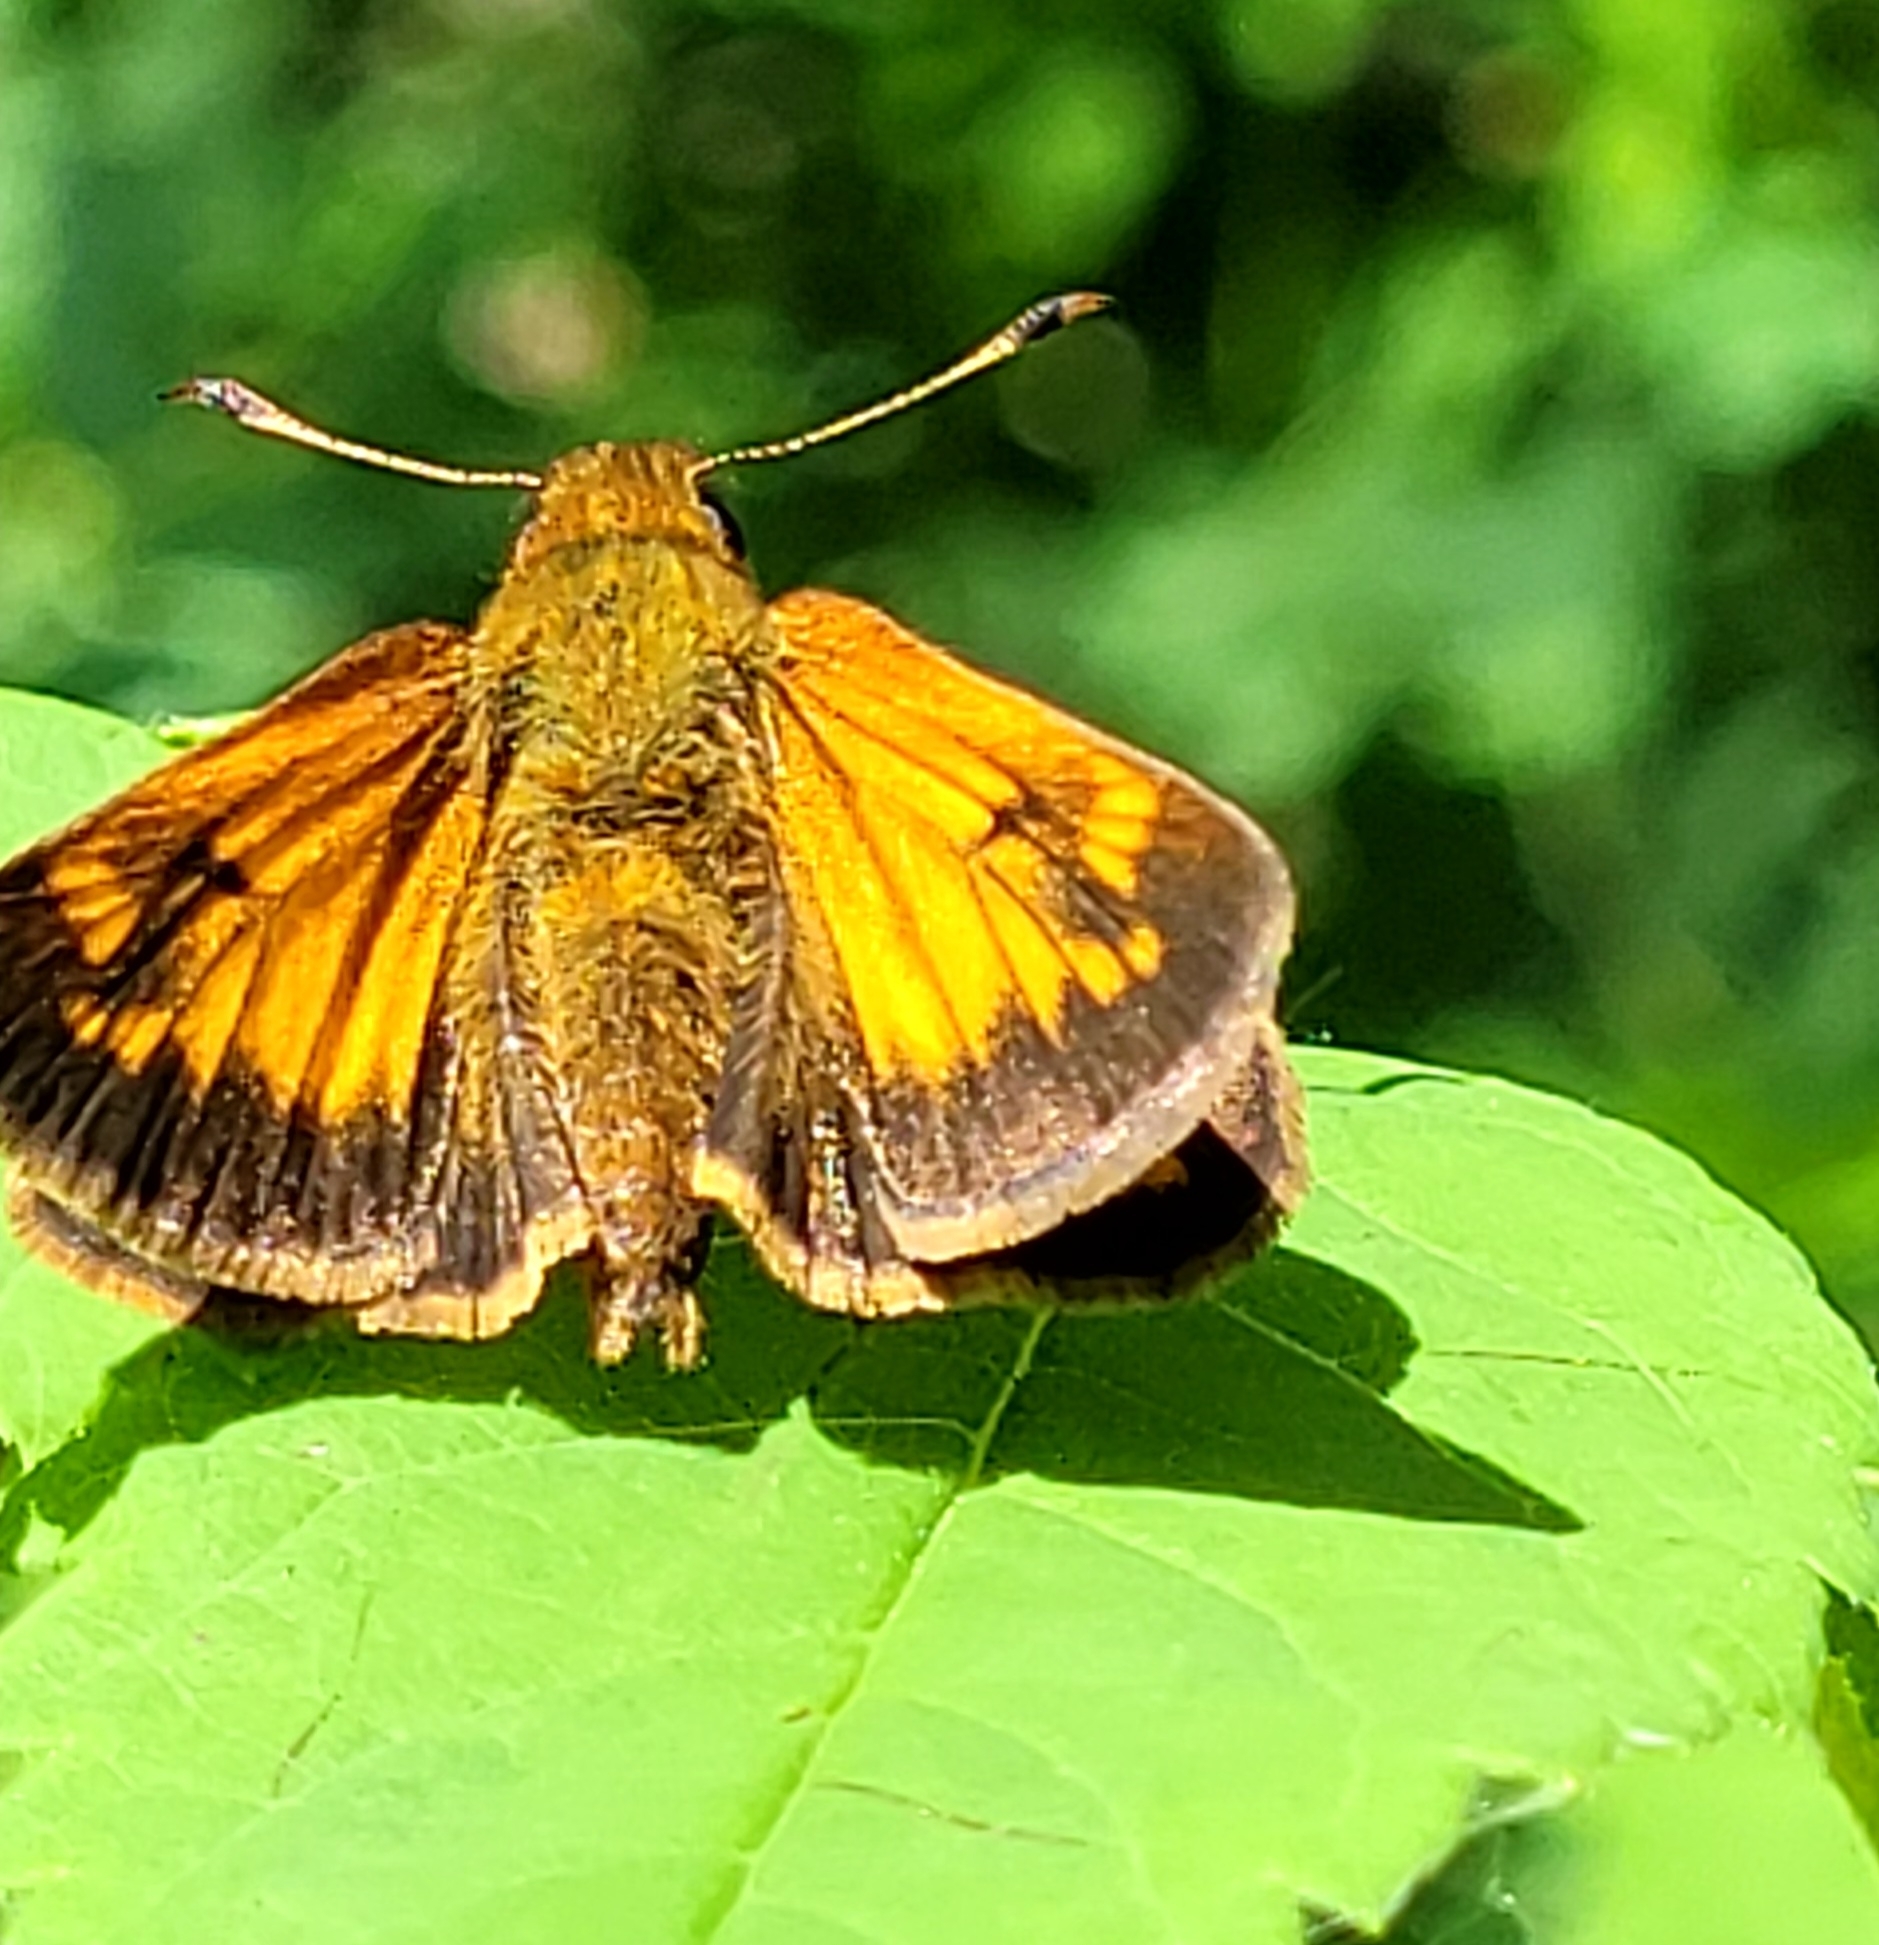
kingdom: Animalia
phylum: Arthropoda
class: Insecta
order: Lepidoptera
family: Hesperiidae
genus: Lon
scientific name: Lon hobomok
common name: Hobomok skipper
